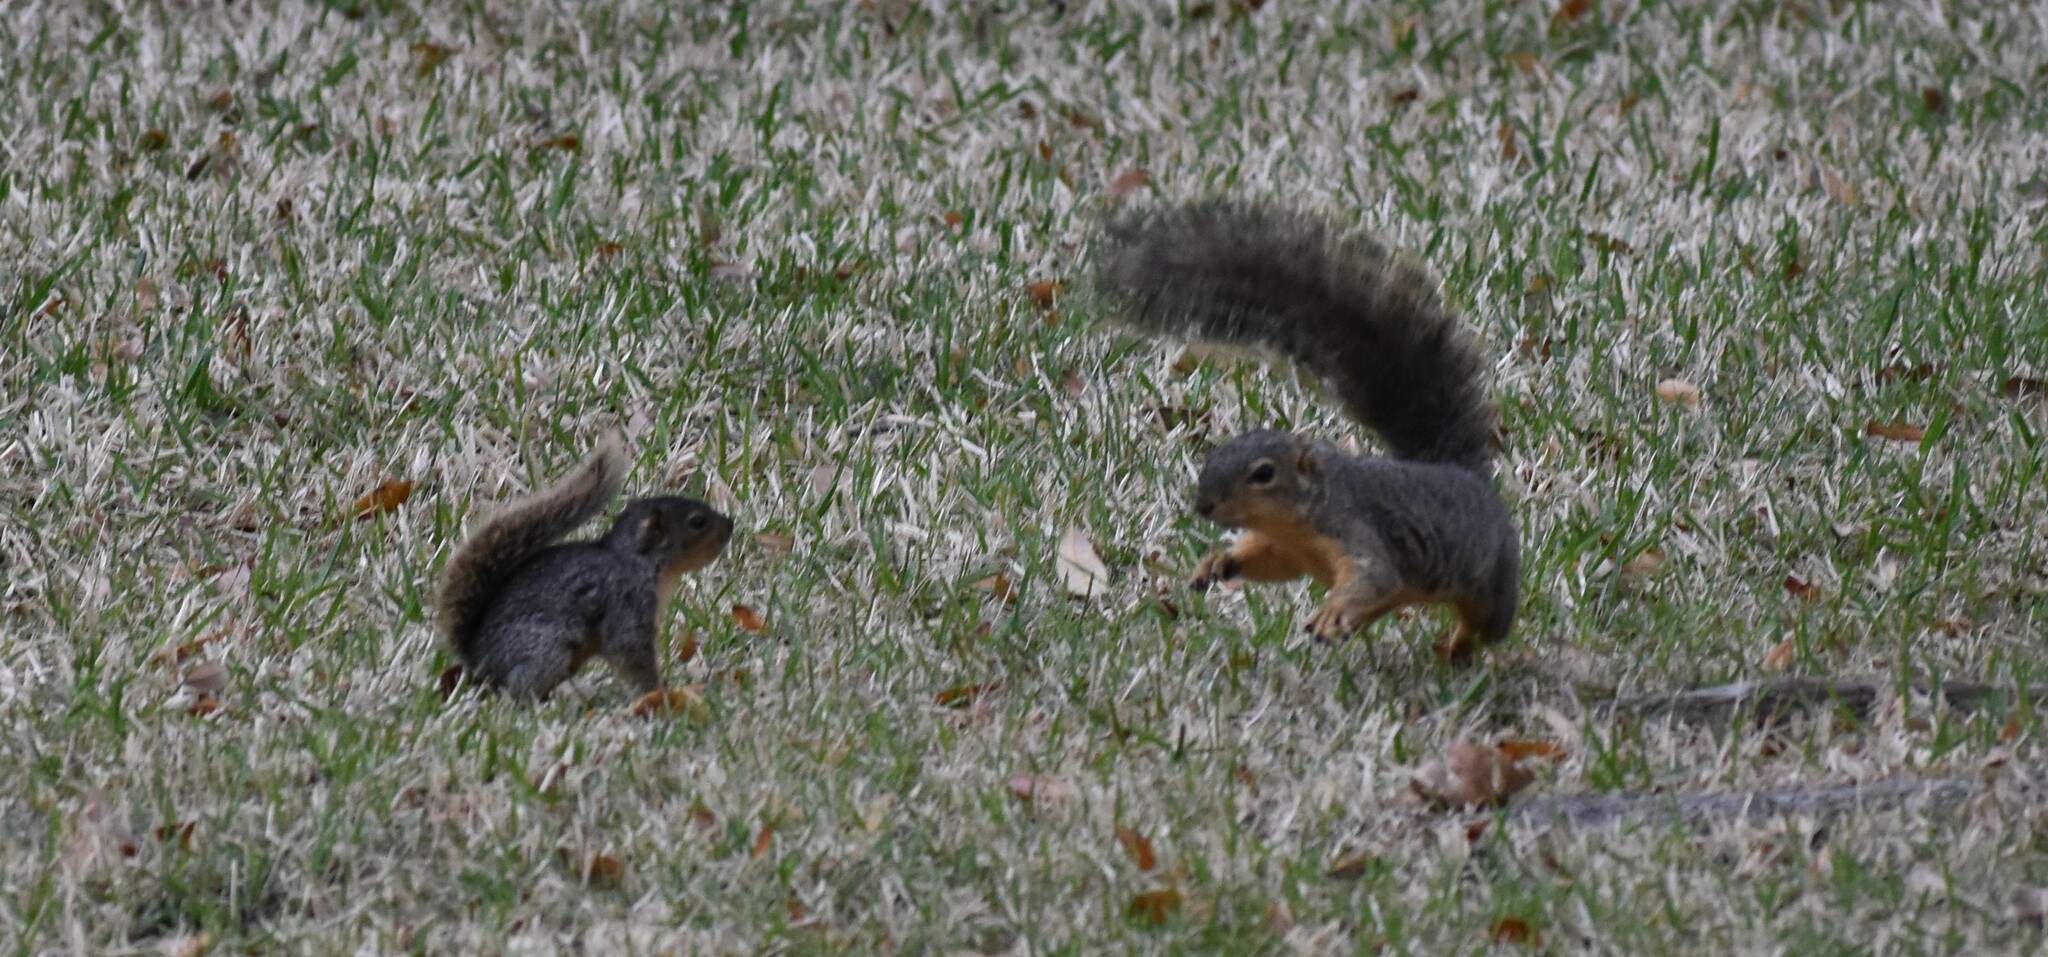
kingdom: Animalia
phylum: Chordata
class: Mammalia
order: Rodentia
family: Sciuridae
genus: Sciurus
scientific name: Sciurus niger
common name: Fox squirrel
